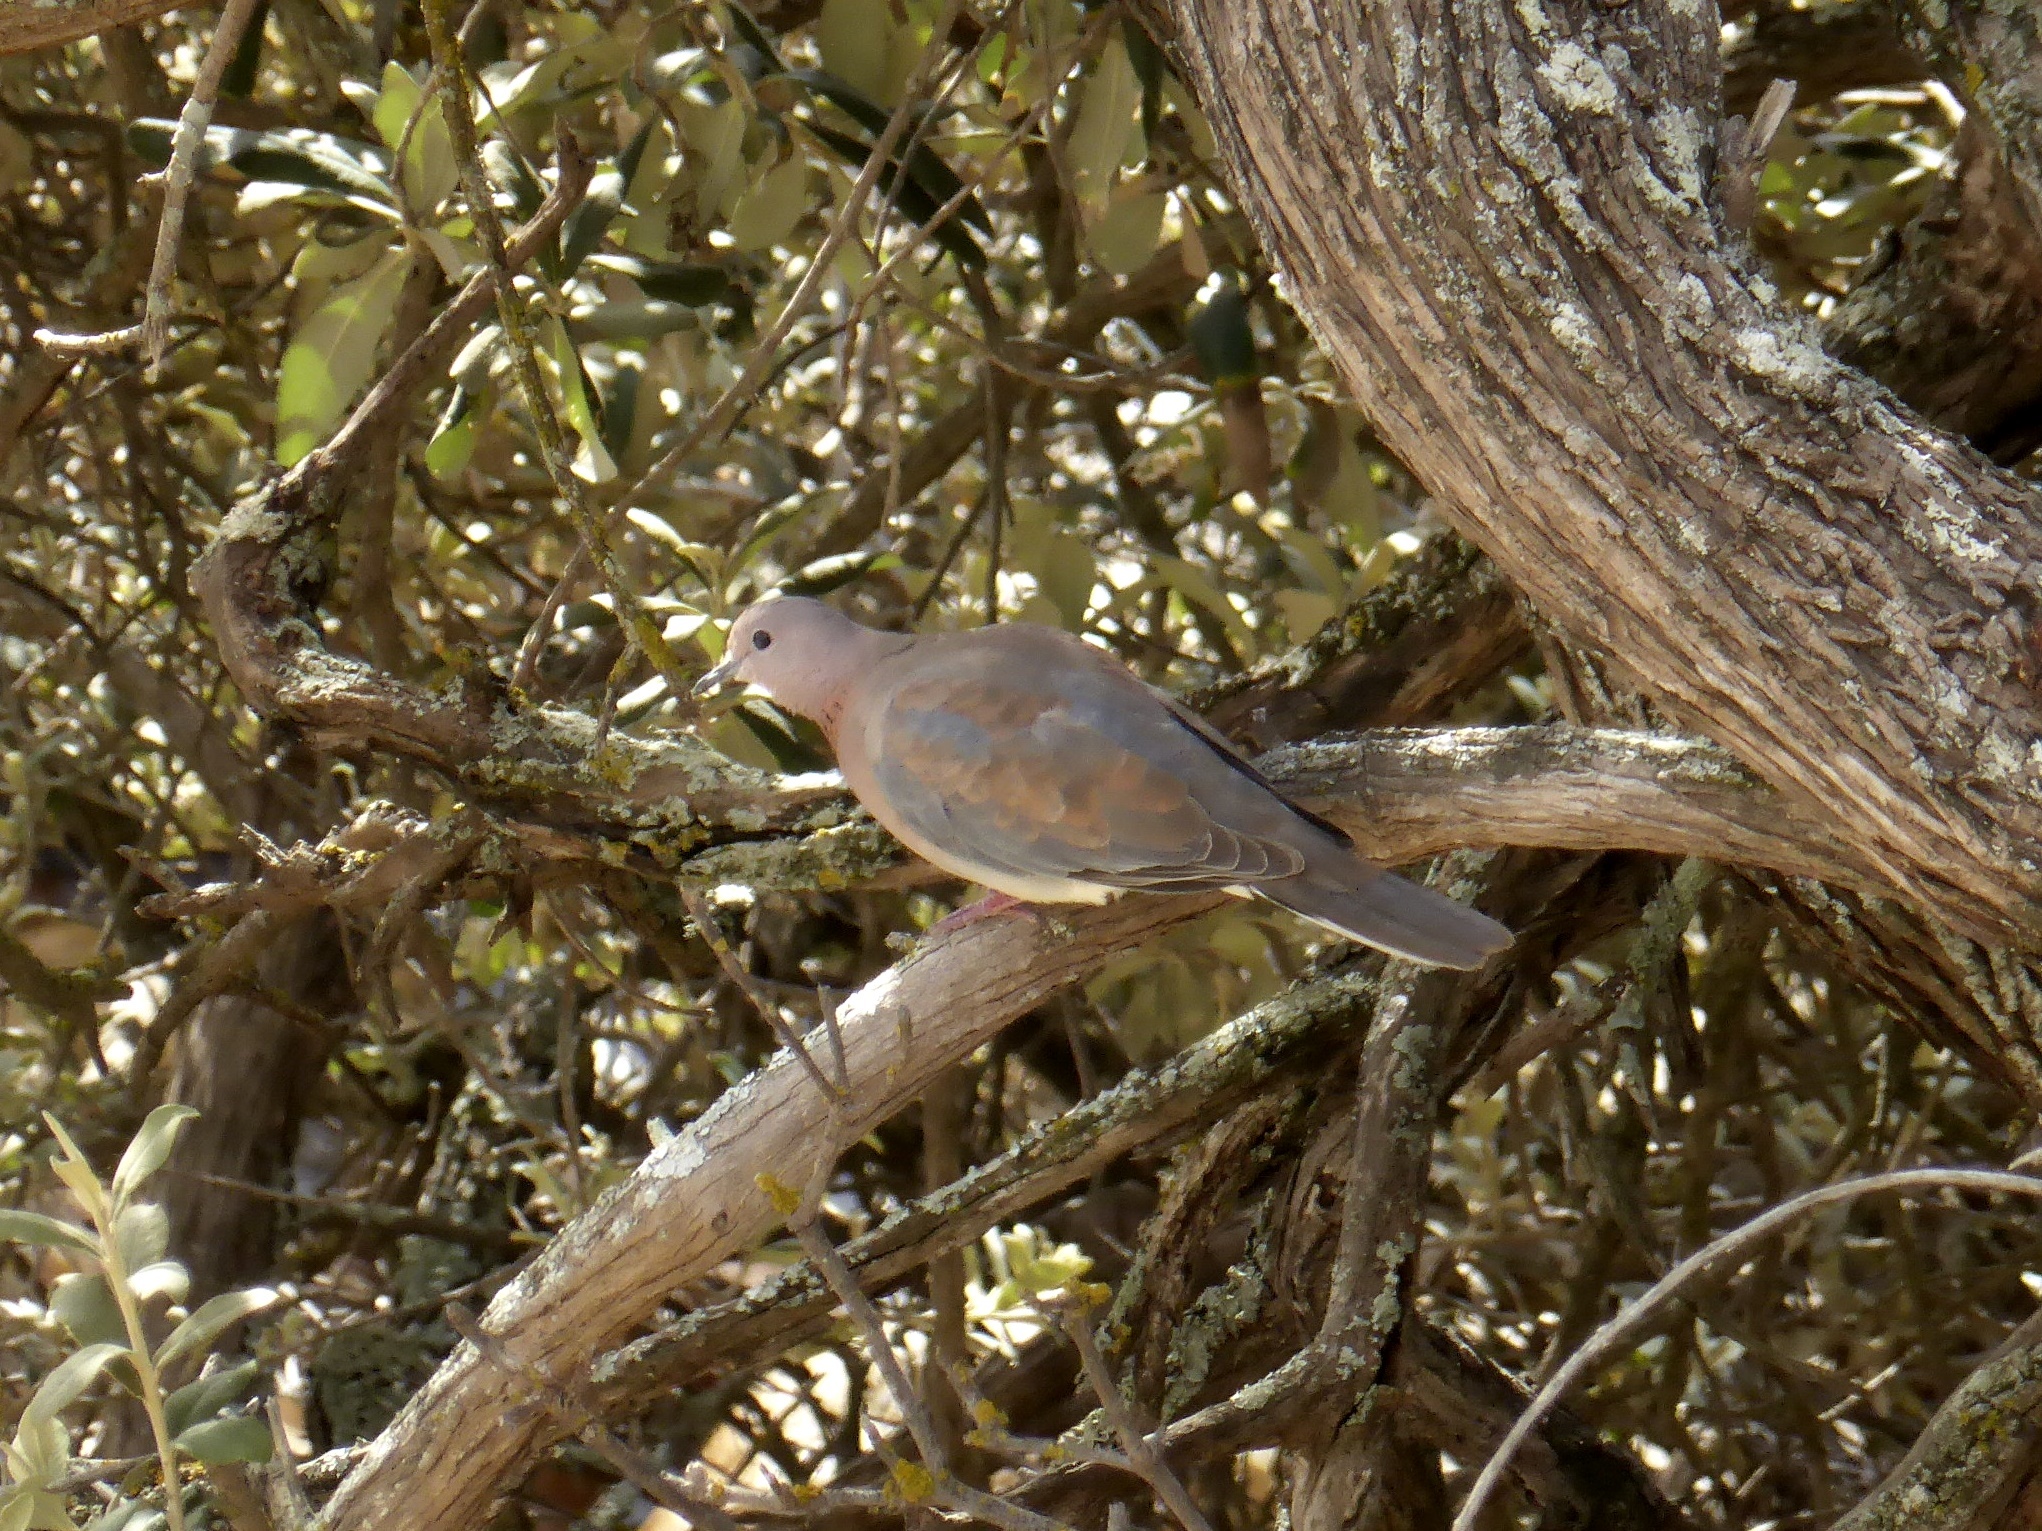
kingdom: Animalia
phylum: Chordata
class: Aves
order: Columbiformes
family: Columbidae
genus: Spilopelia
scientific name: Spilopelia senegalensis
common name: Laughing dove
